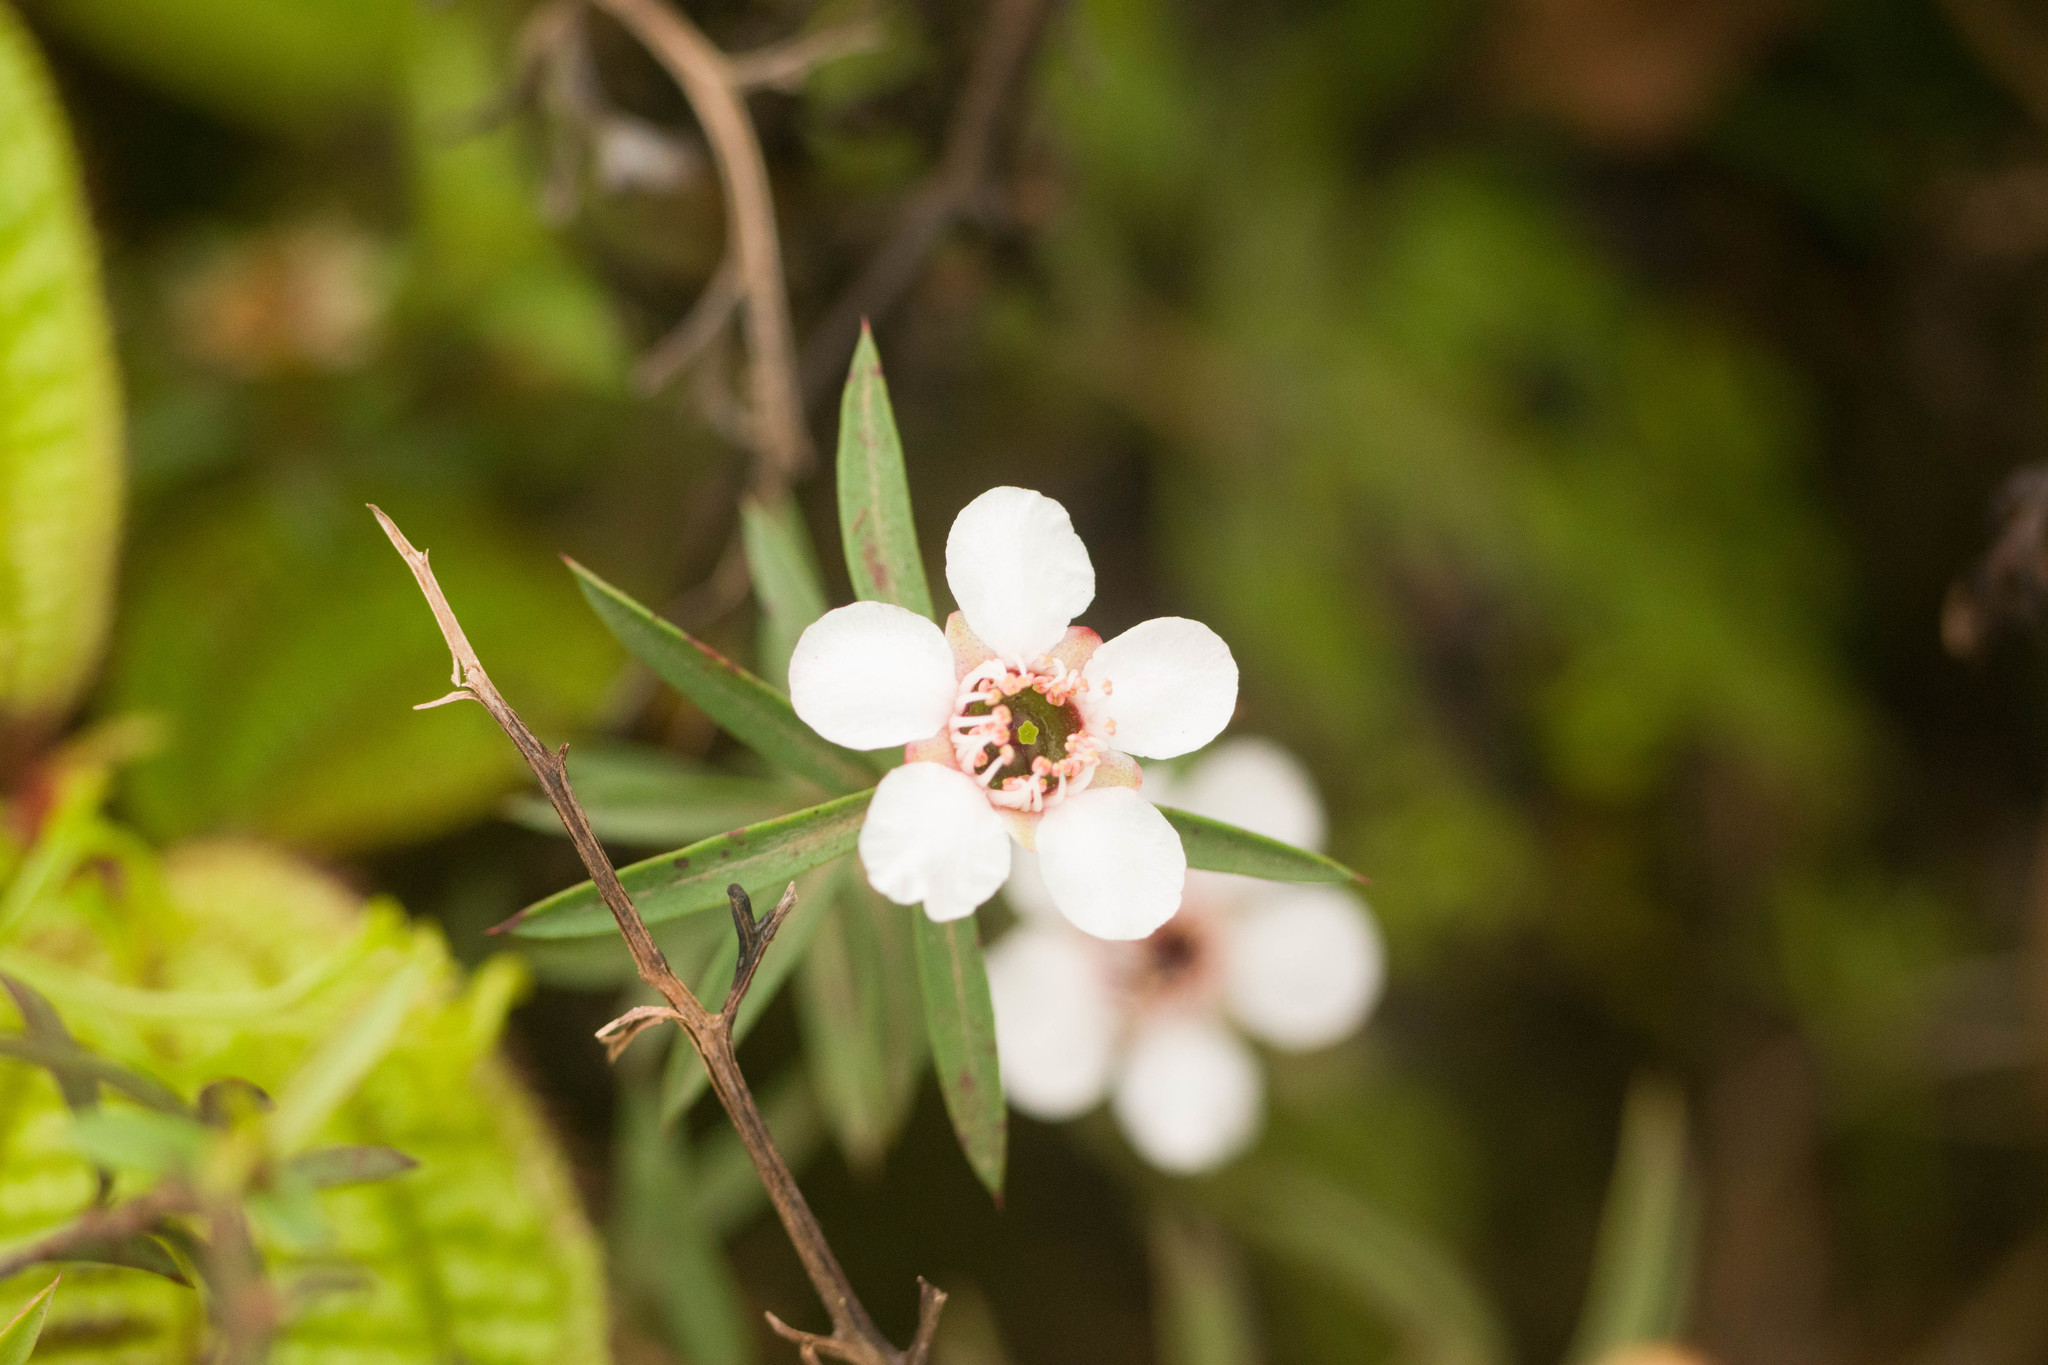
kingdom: Plantae
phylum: Tracheophyta
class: Magnoliopsida
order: Myrtales
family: Myrtaceae
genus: Leptospermum
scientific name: Leptospermum scoparium
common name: Broom tea-tree
